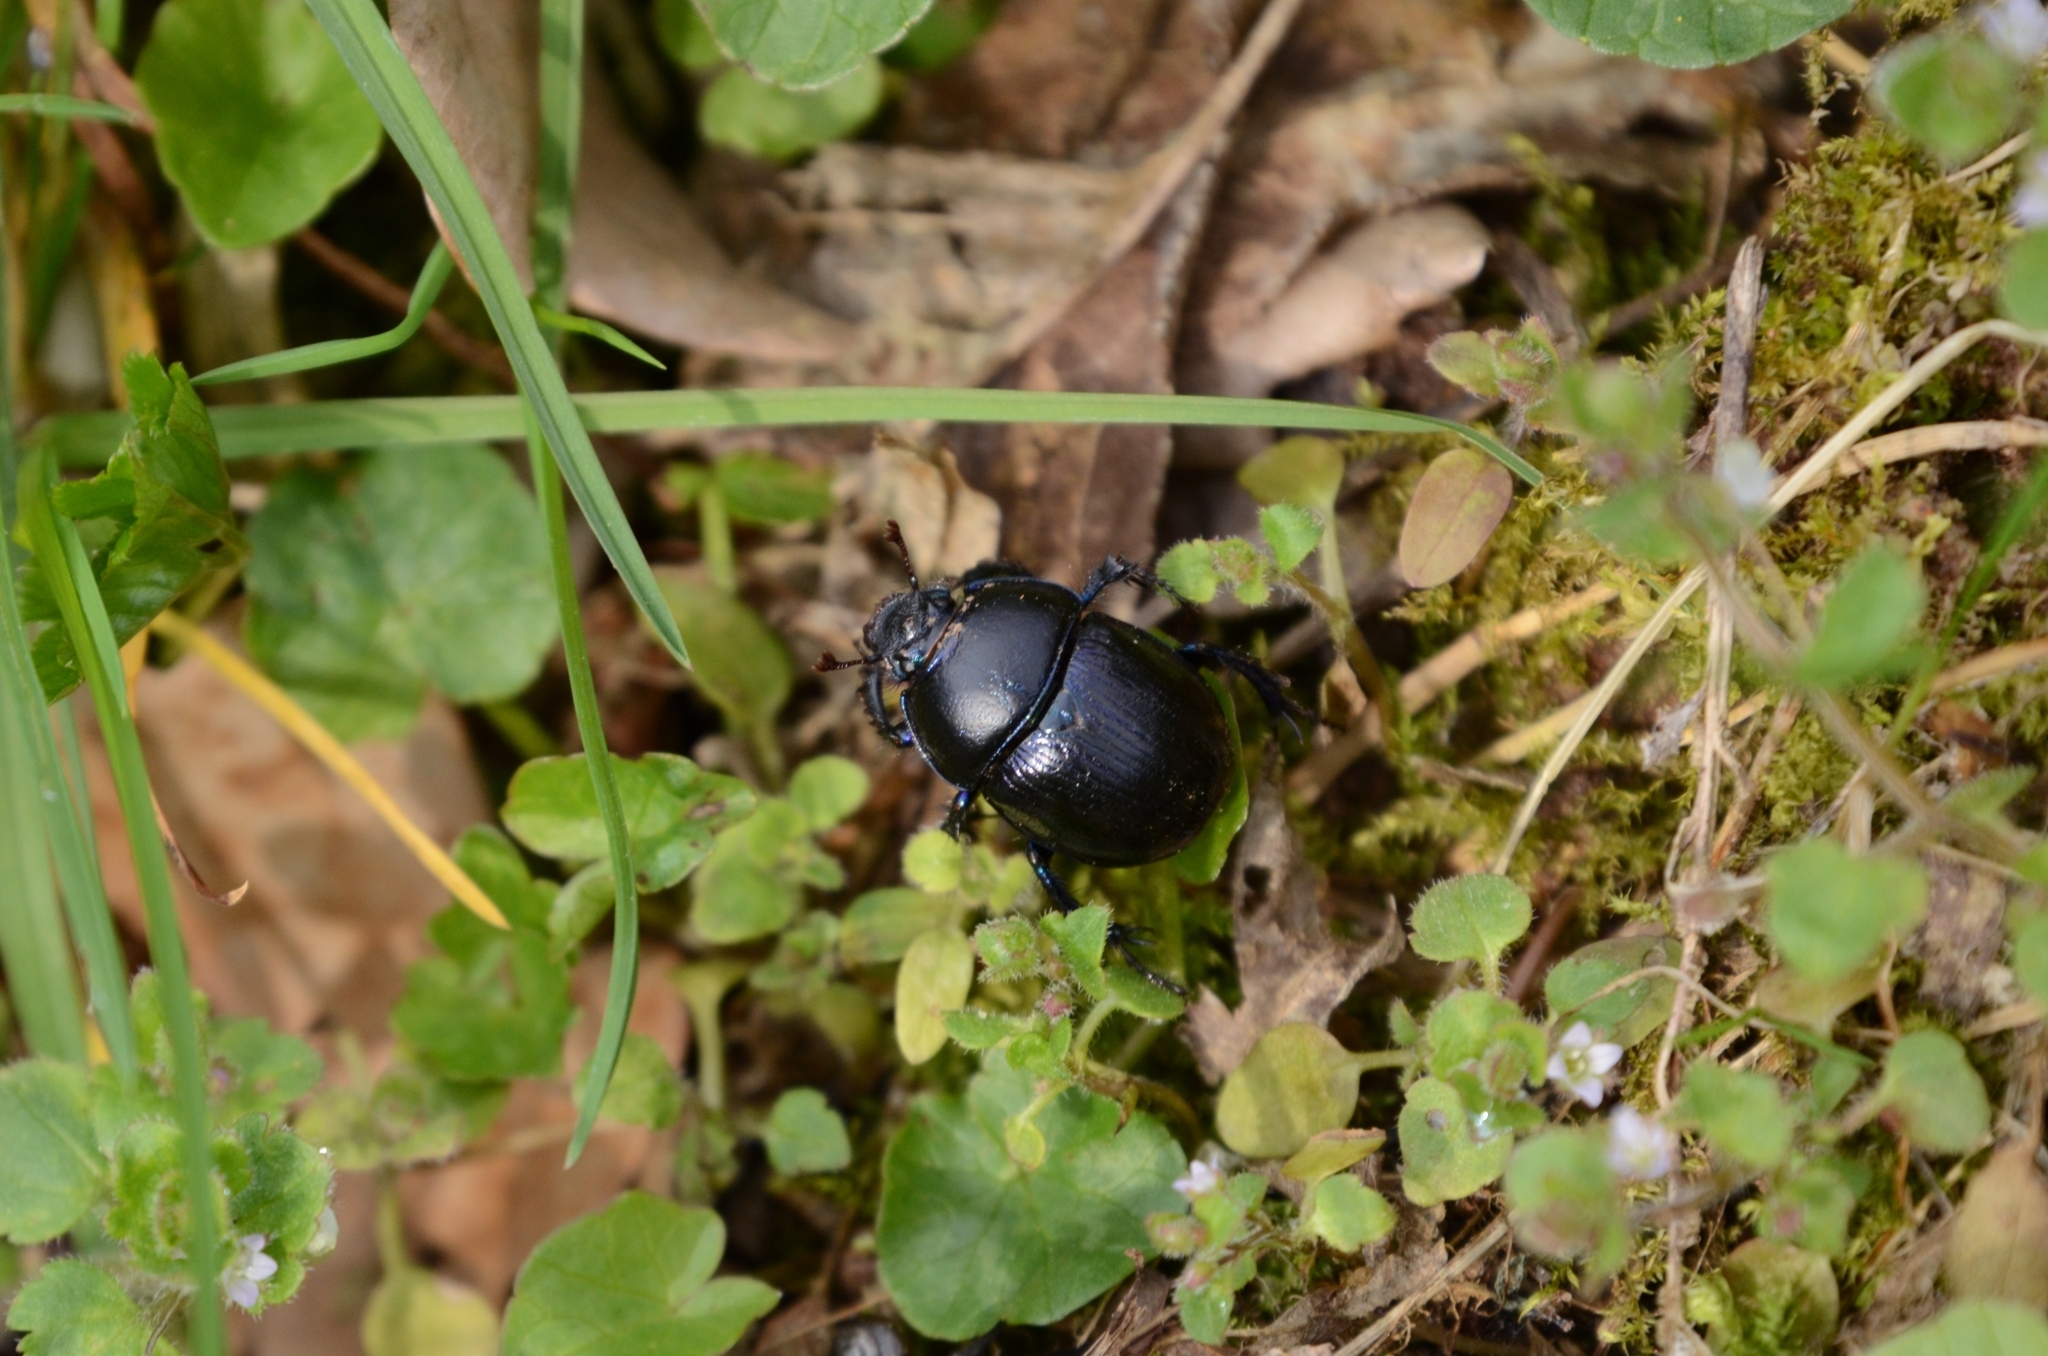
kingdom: Animalia
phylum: Arthropoda
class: Insecta
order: Coleoptera
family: Geotrupidae
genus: Anoplotrupes
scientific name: Anoplotrupes stercorosus
